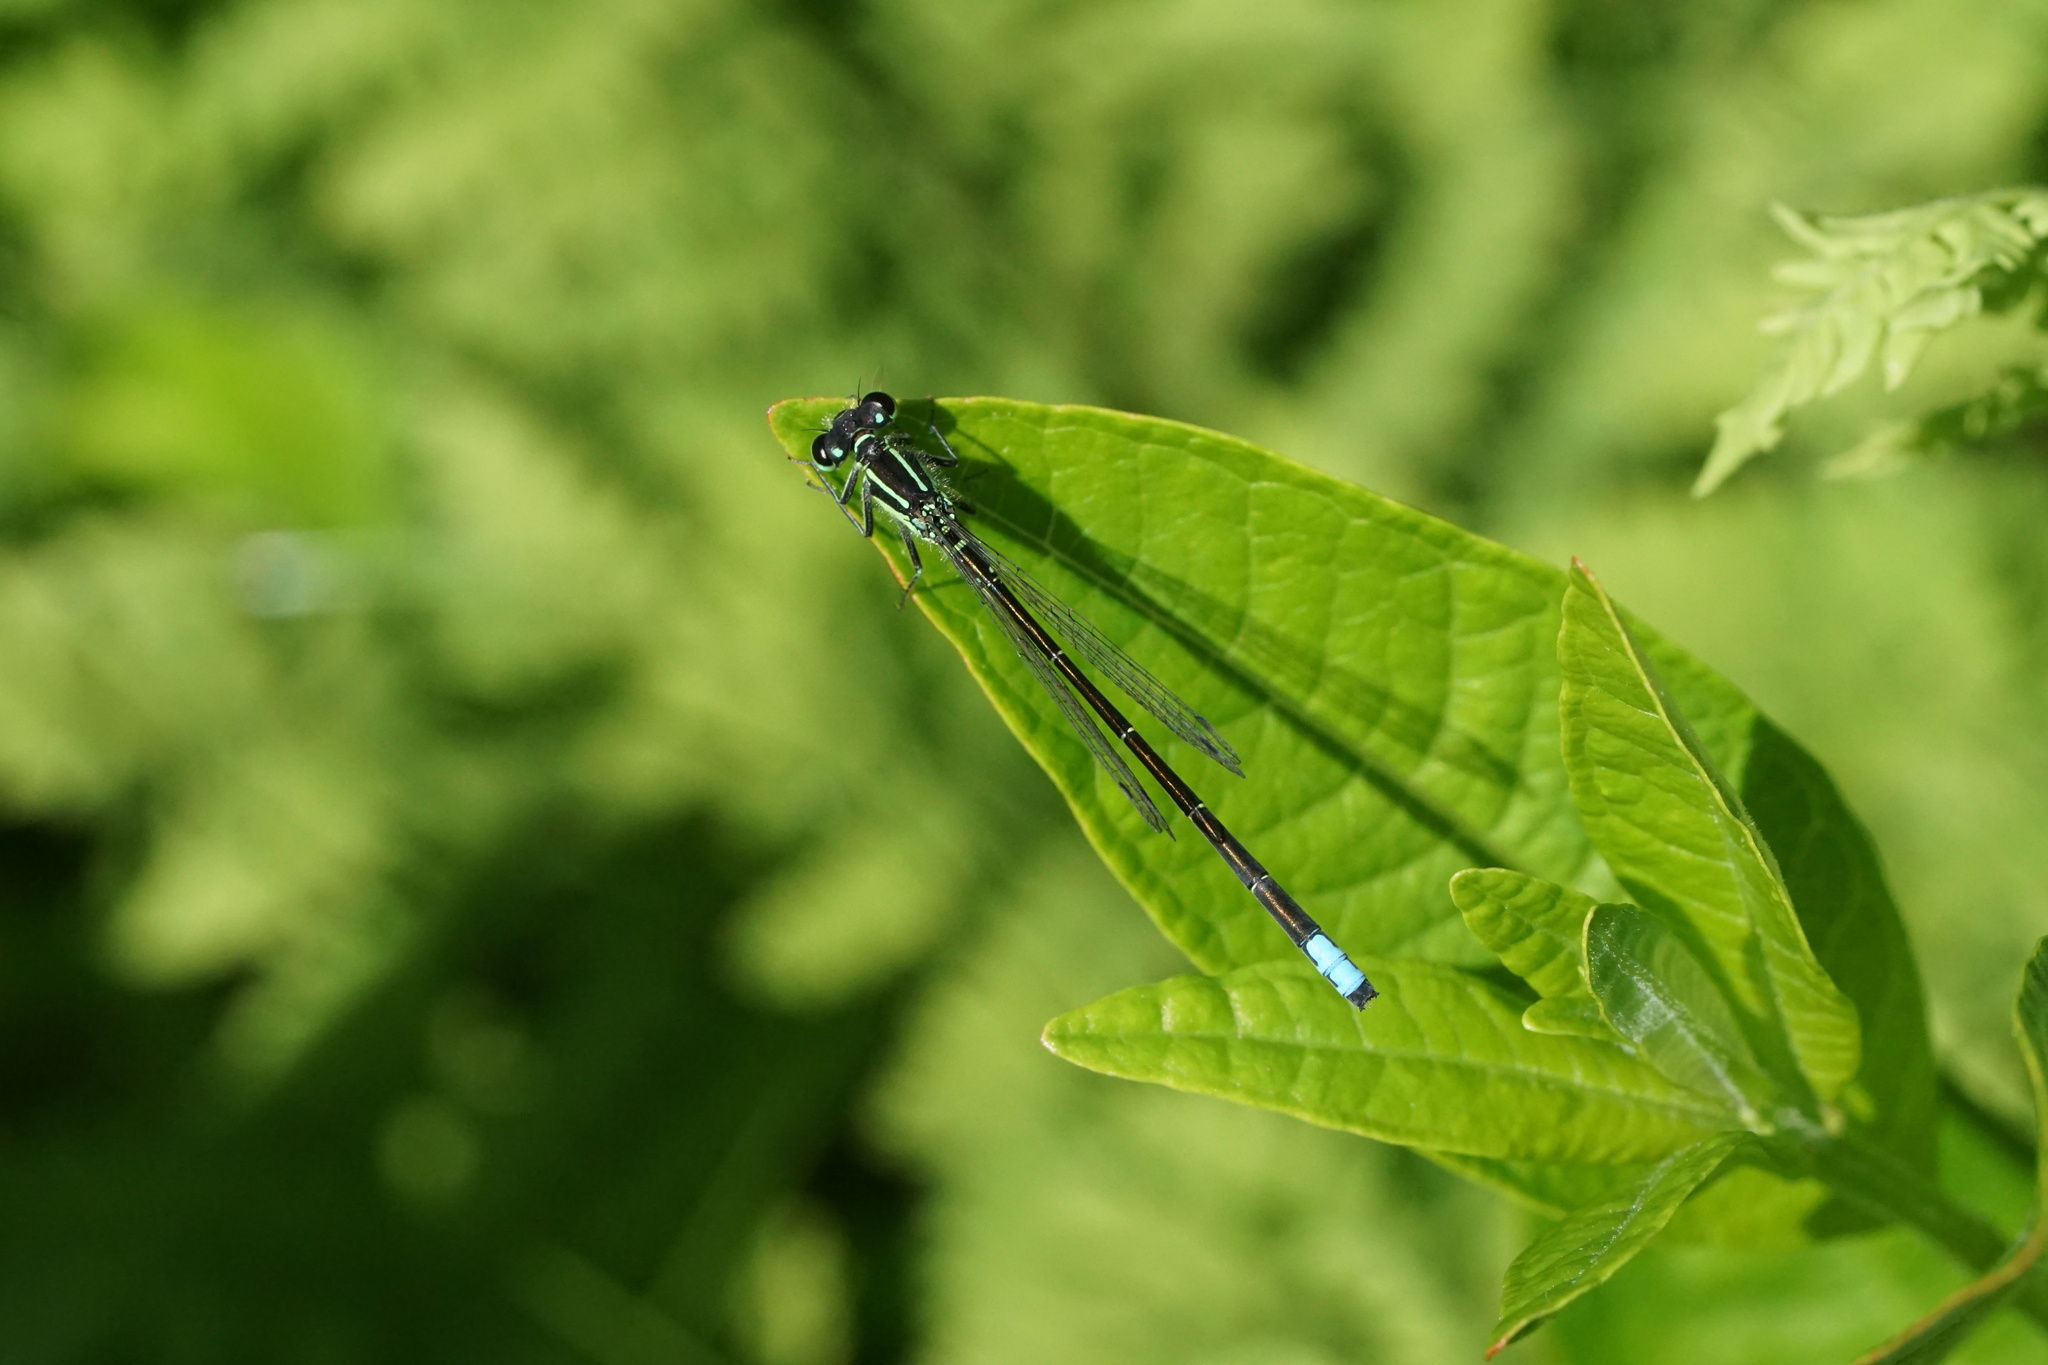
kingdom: Animalia
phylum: Arthropoda
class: Insecta
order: Odonata
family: Coenagrionidae
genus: Ischnura
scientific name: Ischnura verticalis
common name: Eastern forktail
